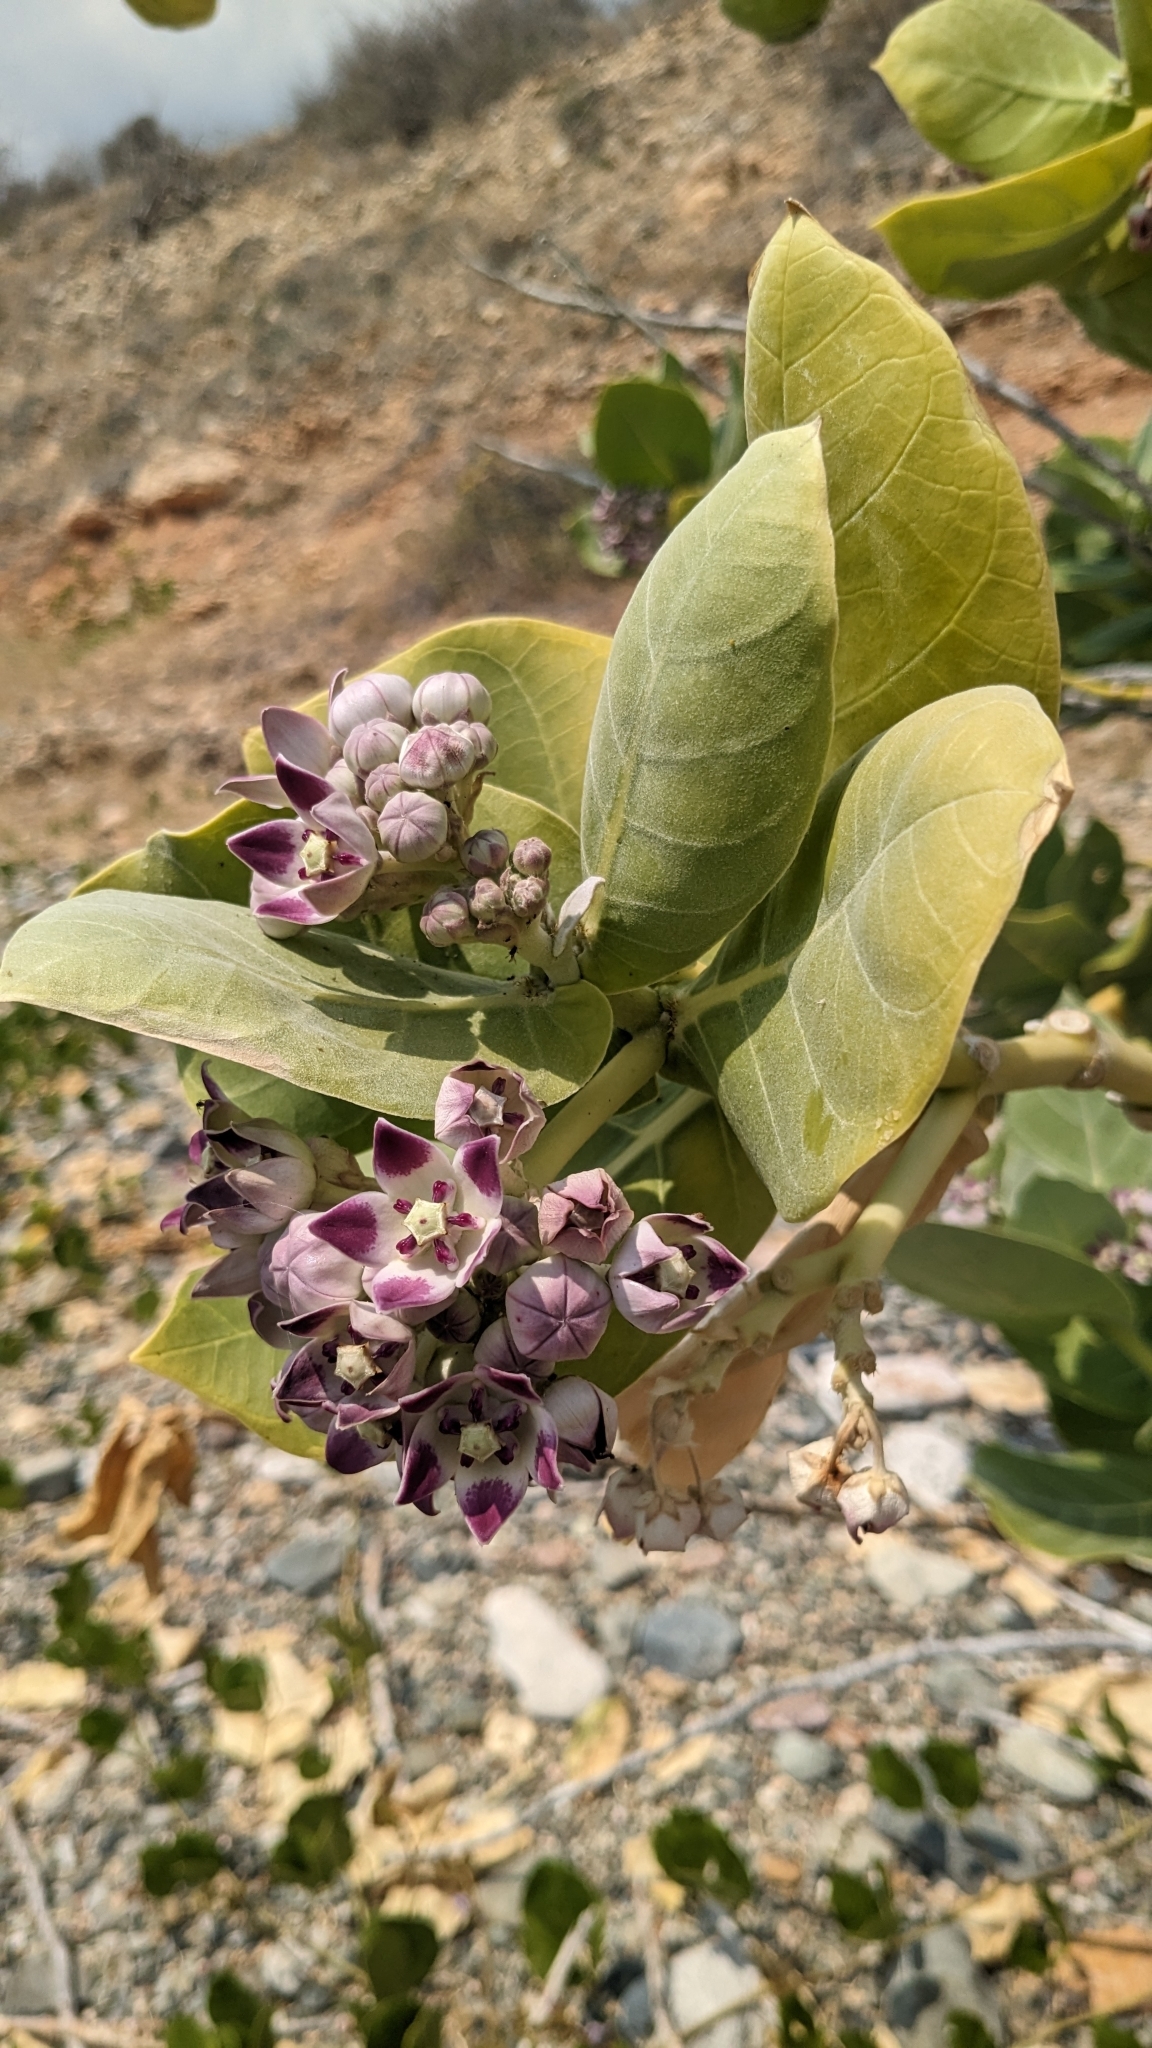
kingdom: Plantae
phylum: Tracheophyta
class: Magnoliopsida
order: Gentianales
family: Apocynaceae
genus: Calotropis
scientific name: Calotropis procera
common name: Roostertree
